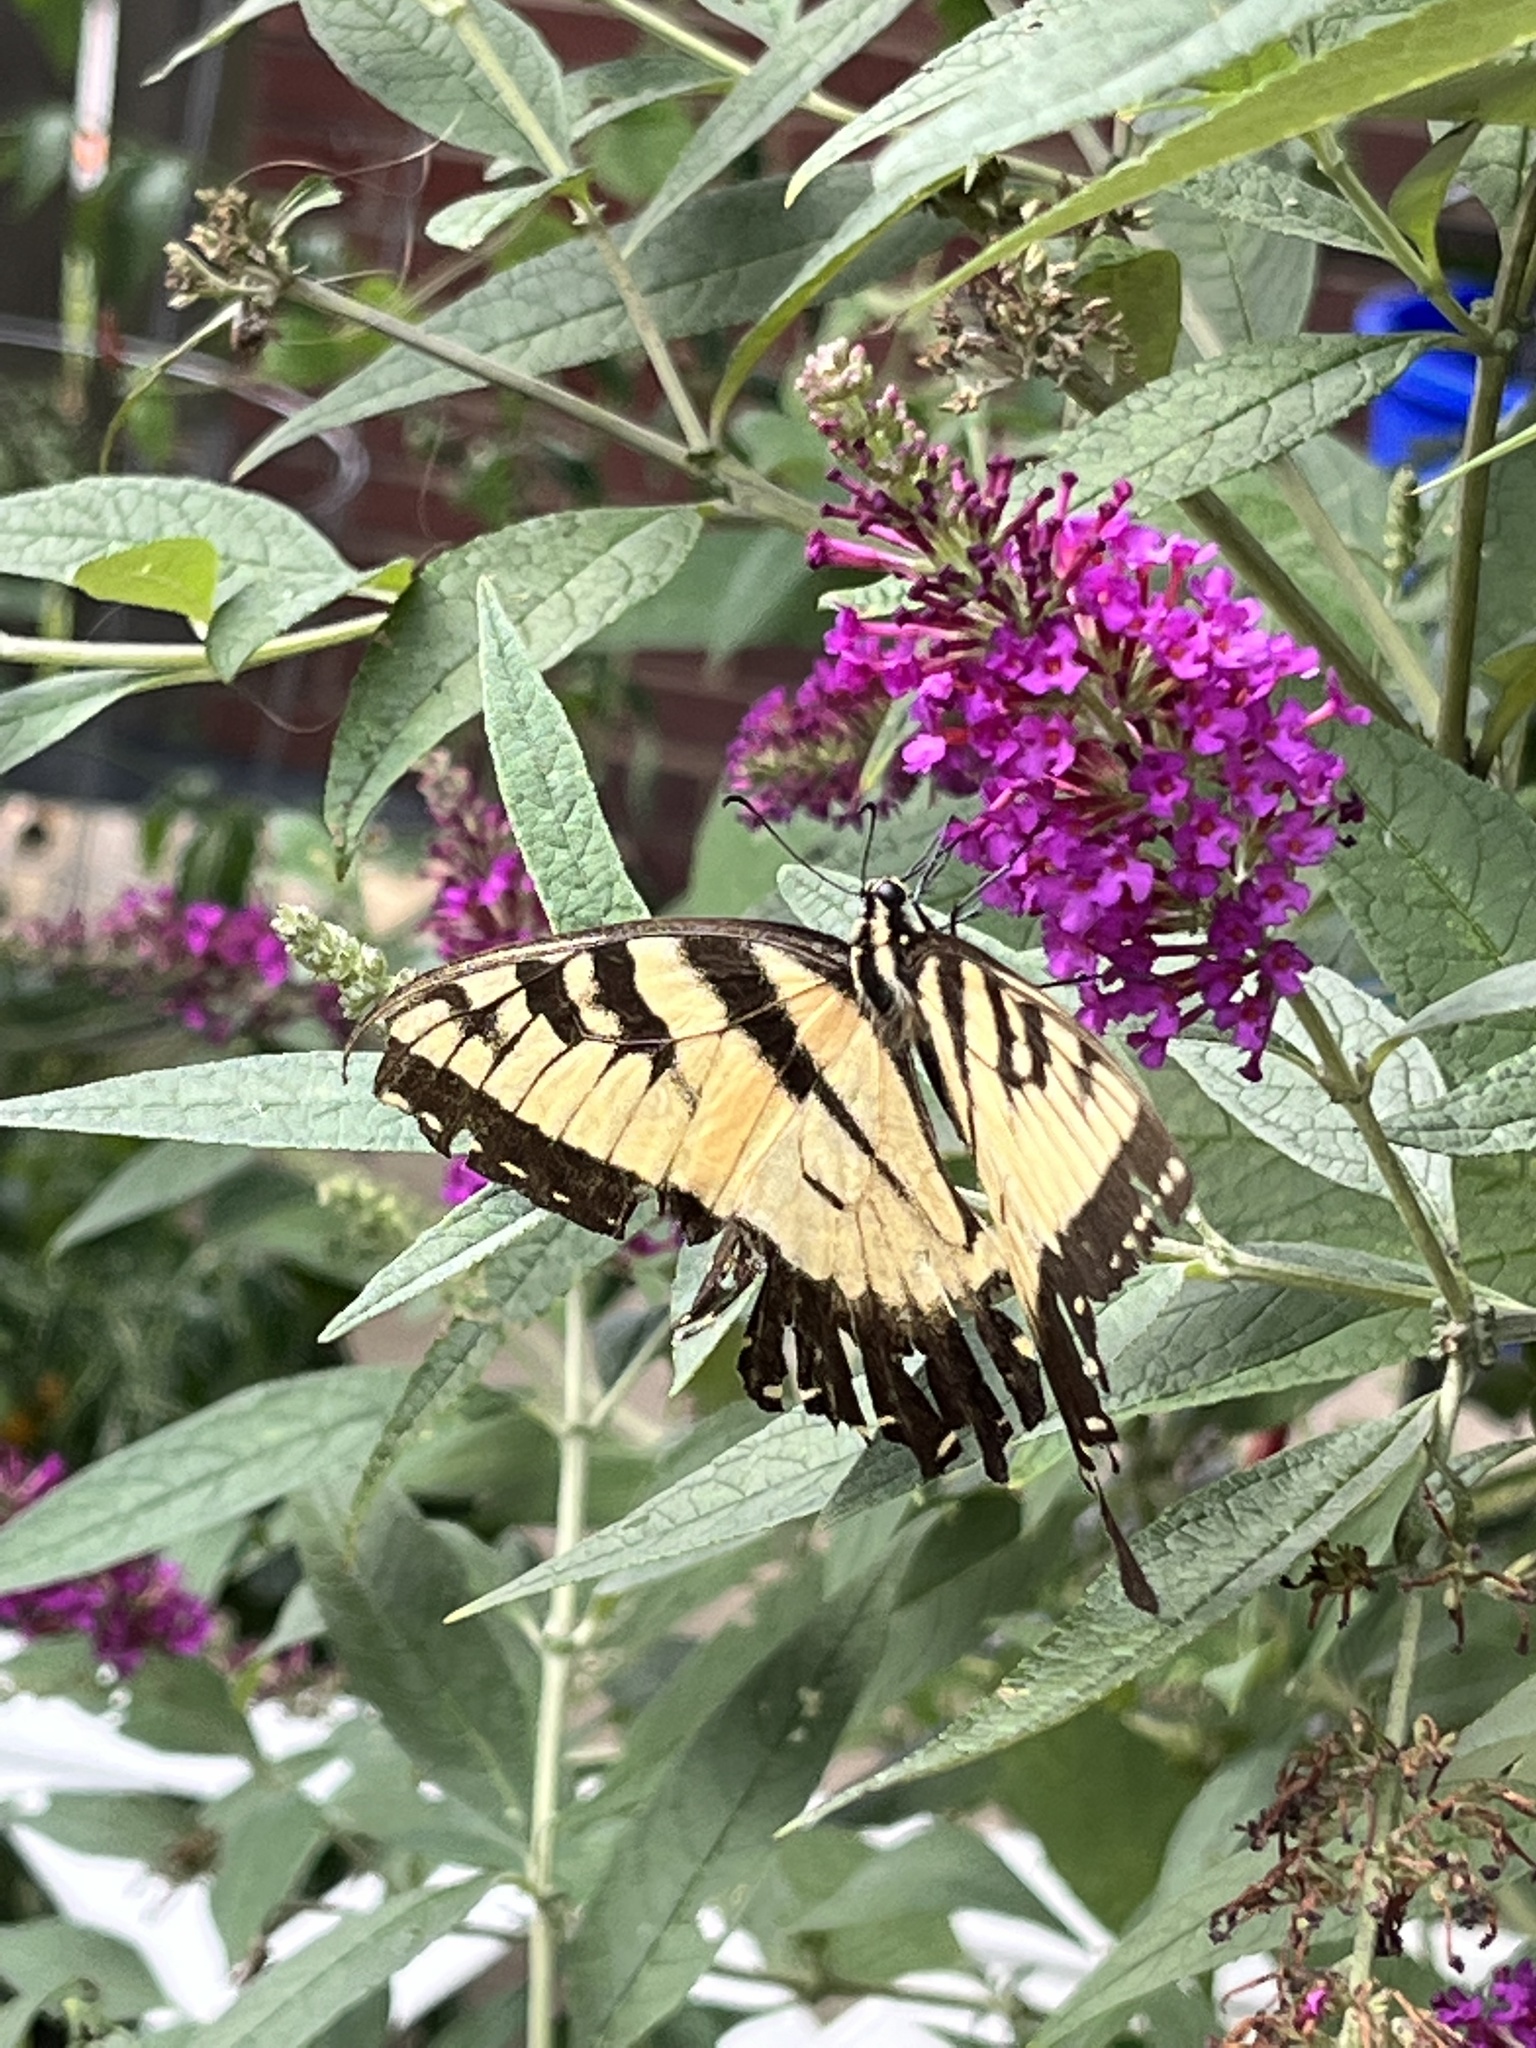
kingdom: Animalia
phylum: Arthropoda
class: Insecta
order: Lepidoptera
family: Papilionidae
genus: Papilio
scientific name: Papilio glaucus
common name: Tiger swallowtail
